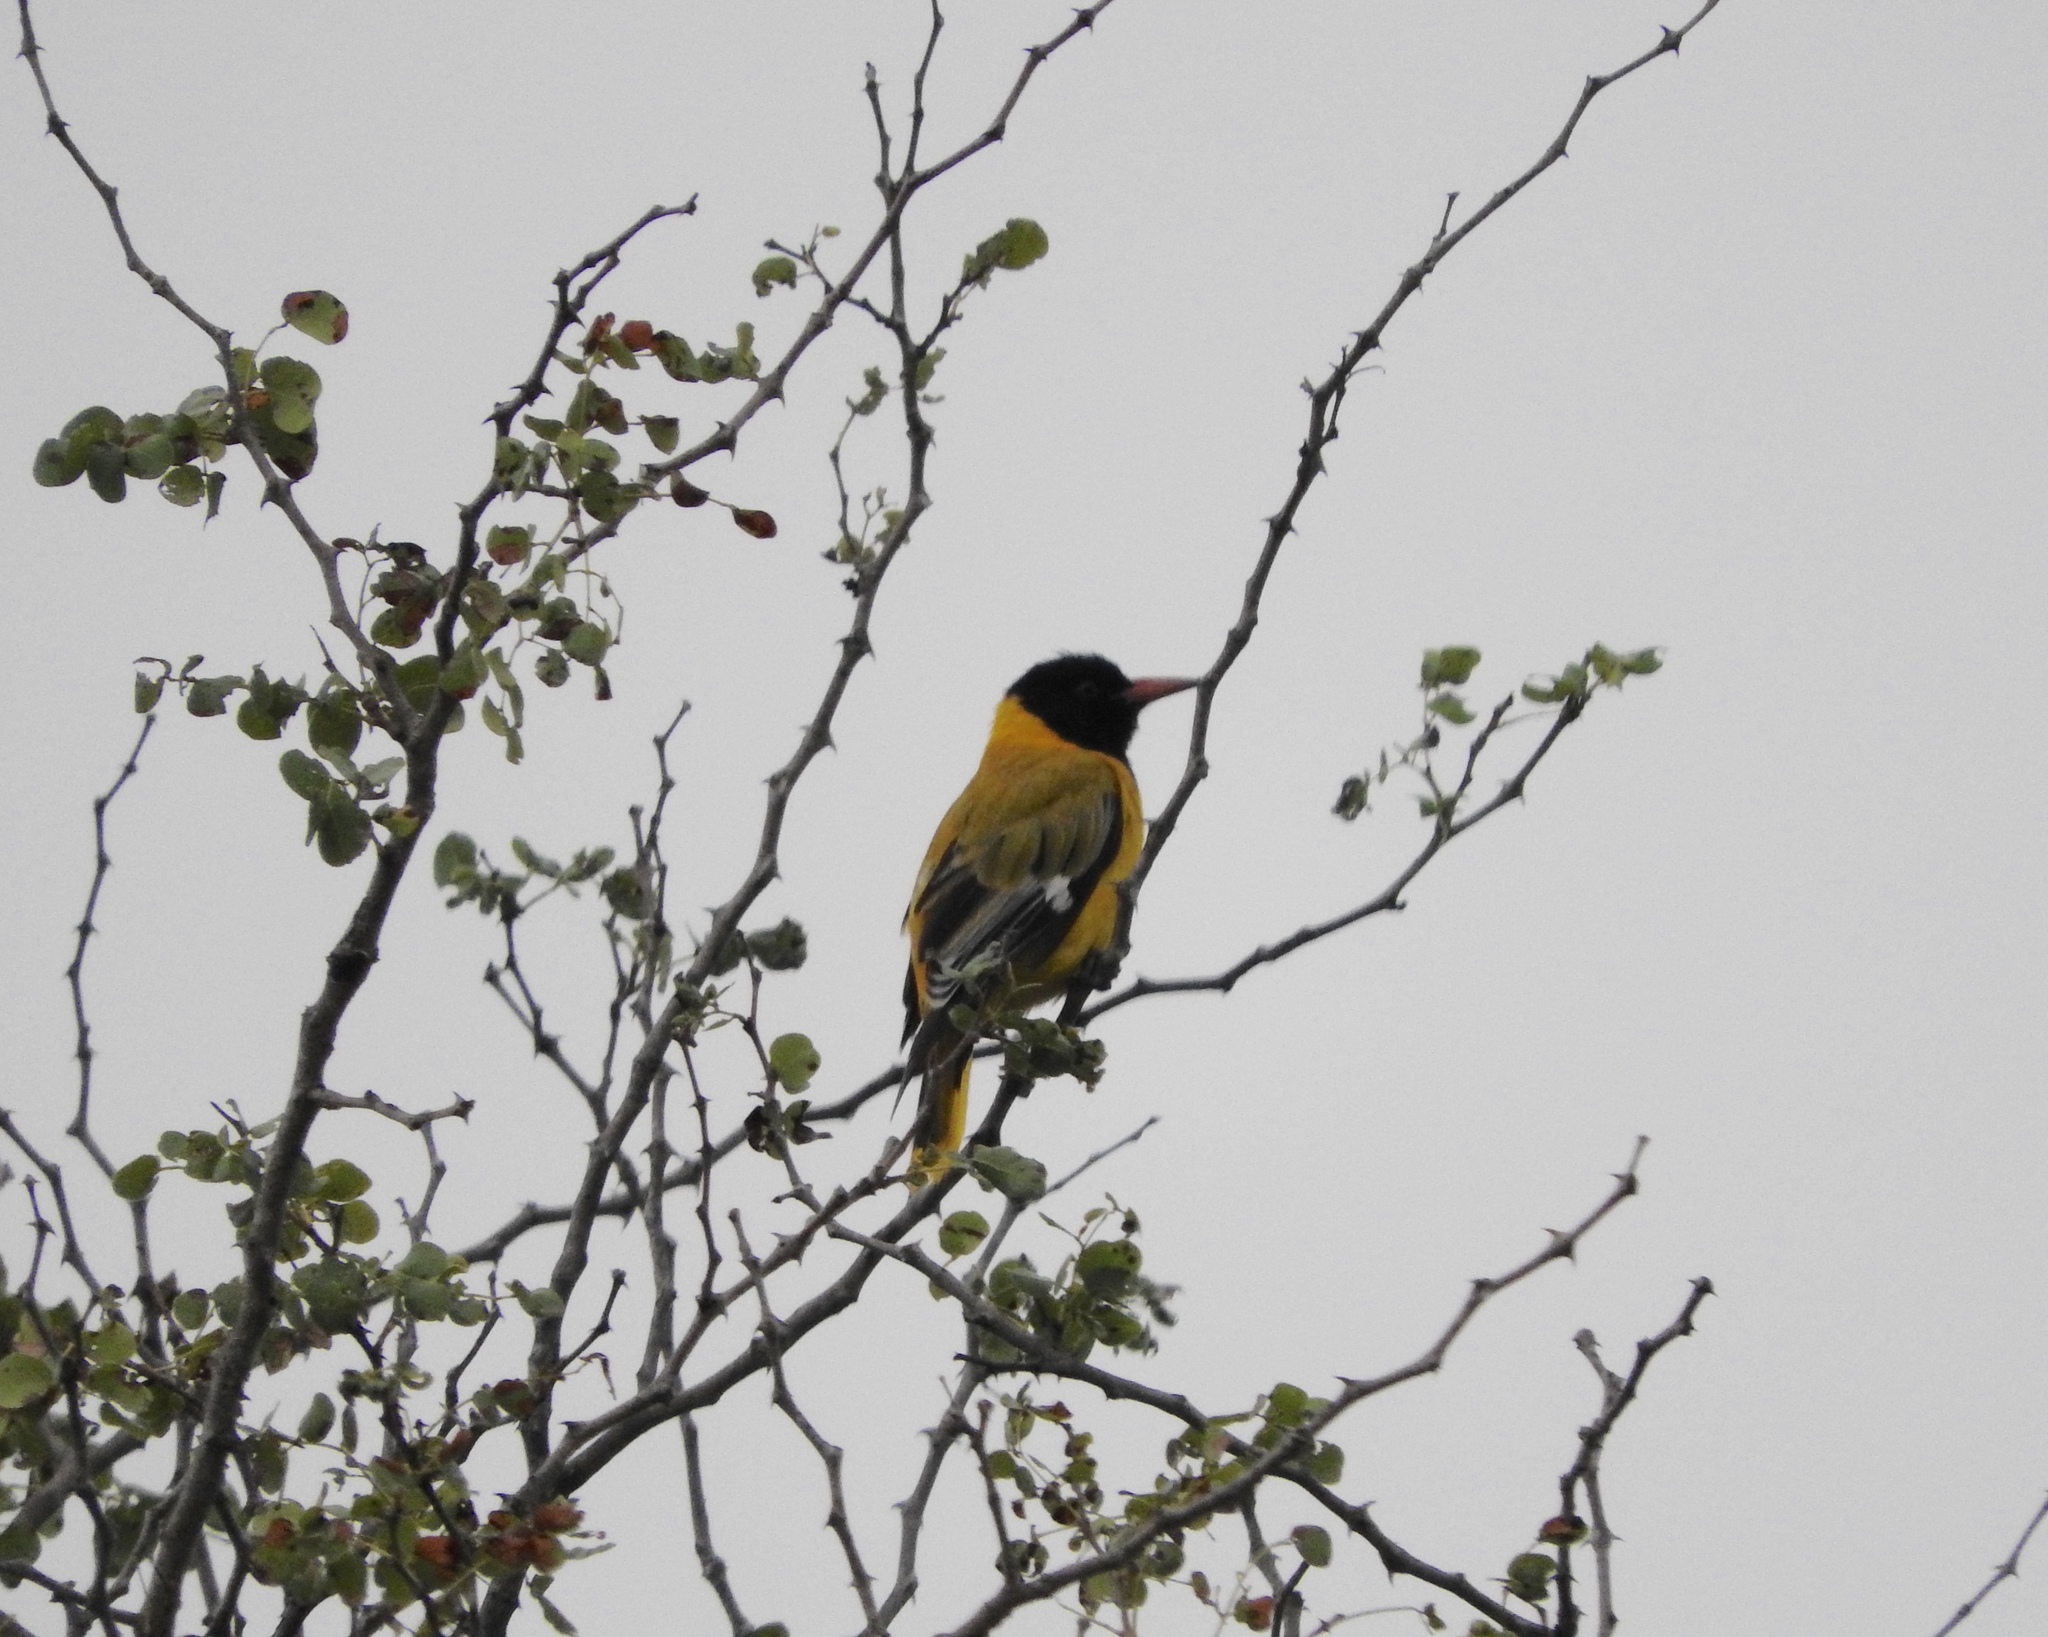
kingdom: Animalia
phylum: Chordata
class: Aves
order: Passeriformes
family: Oriolidae
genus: Oriolus
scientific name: Oriolus larvatus
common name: Black-headed oriole
